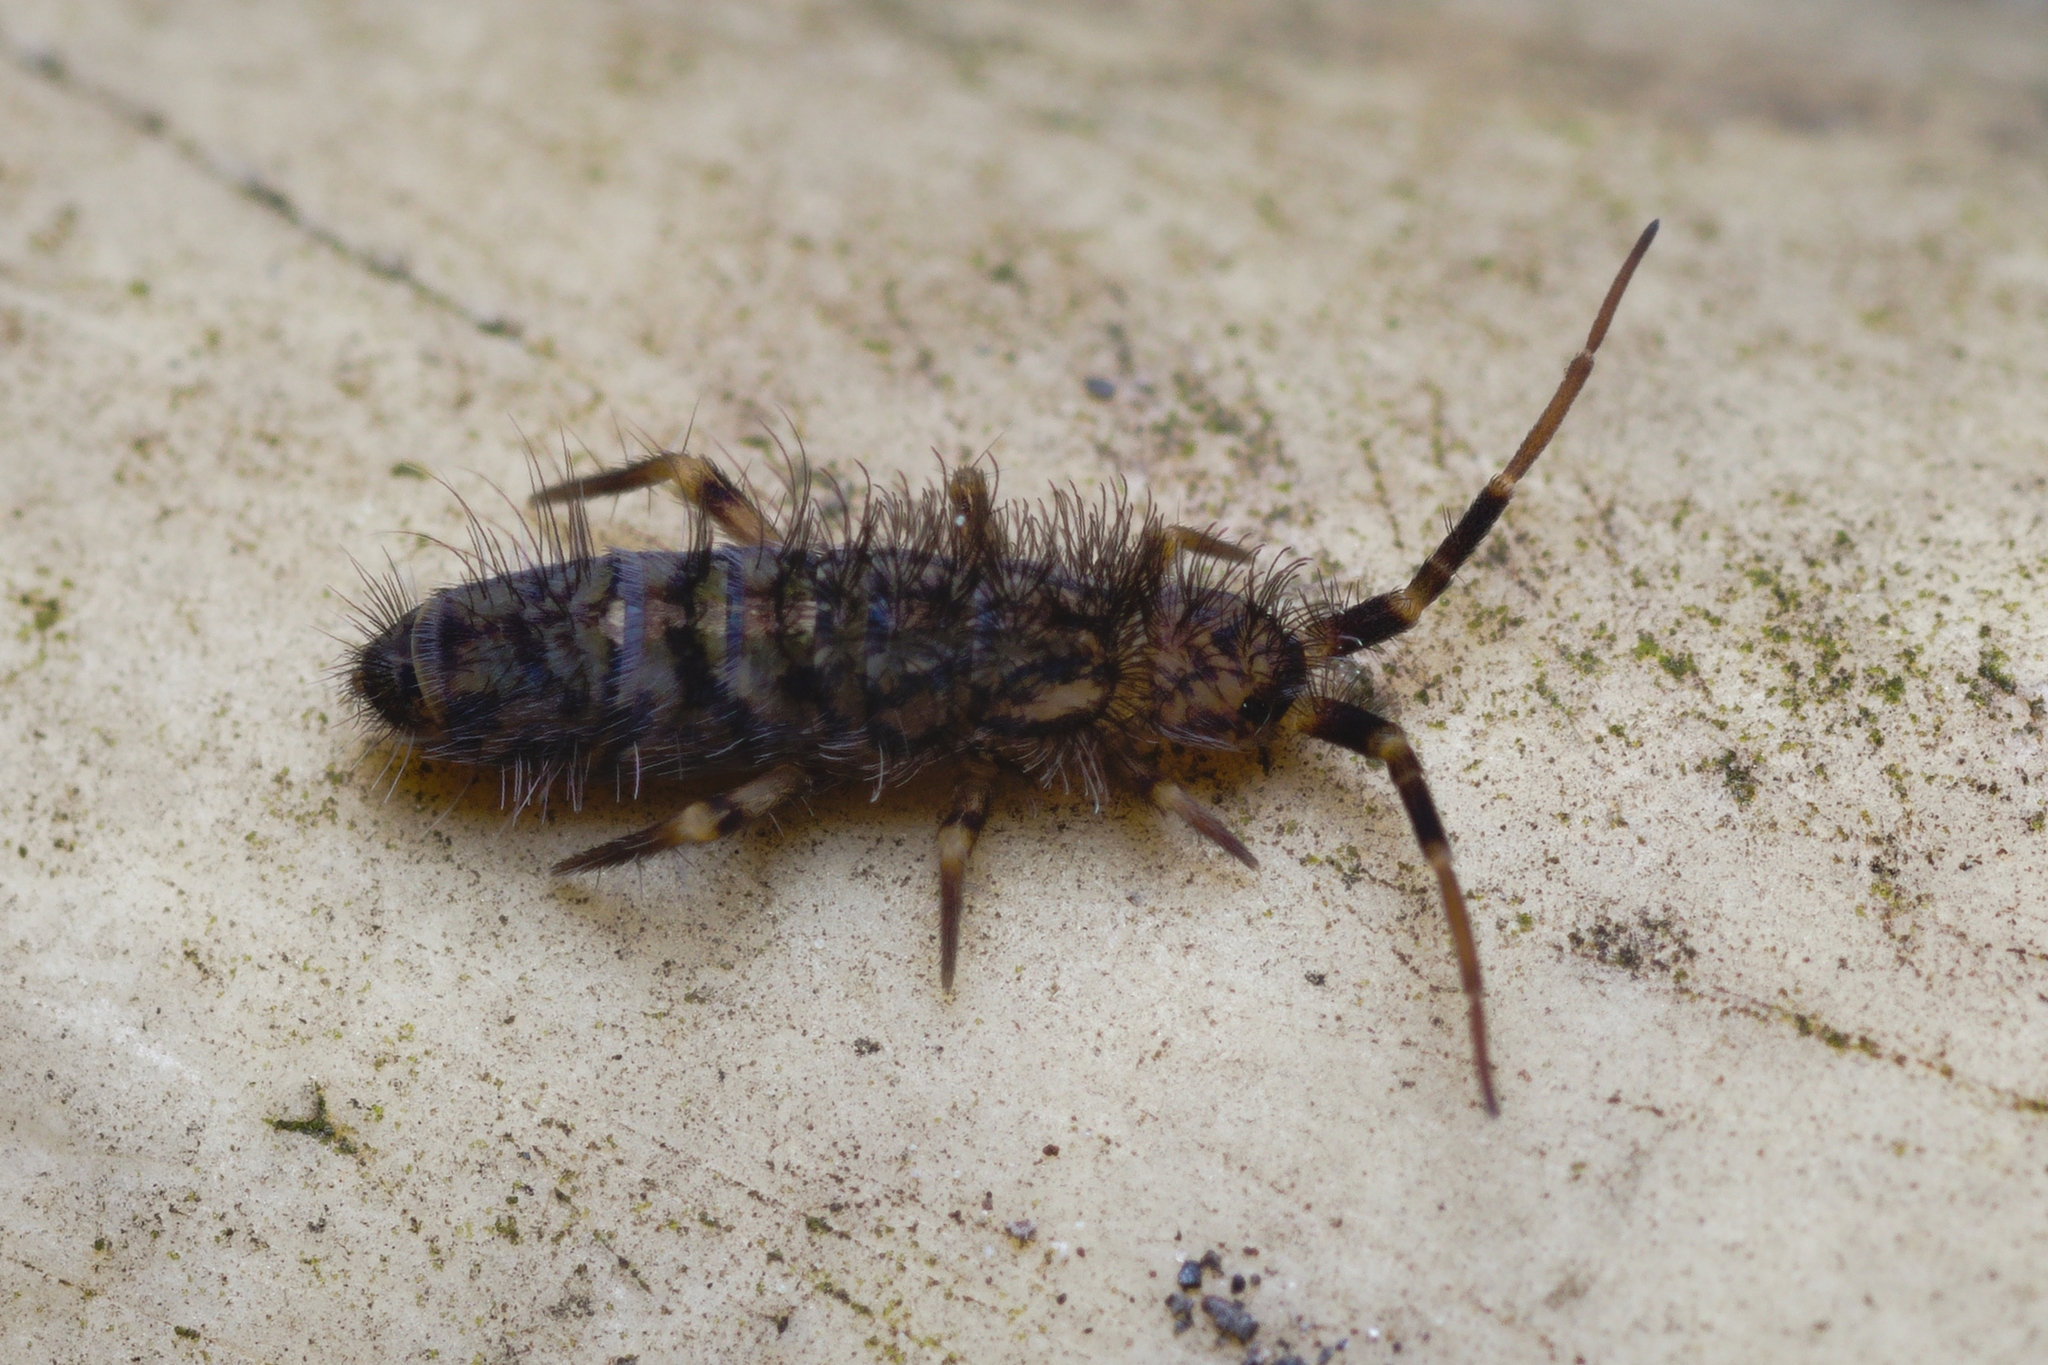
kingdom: Animalia
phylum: Arthropoda
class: Collembola
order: Entomobryomorpha
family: Orchesellidae
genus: Orchesella
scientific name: Orchesella villosa
